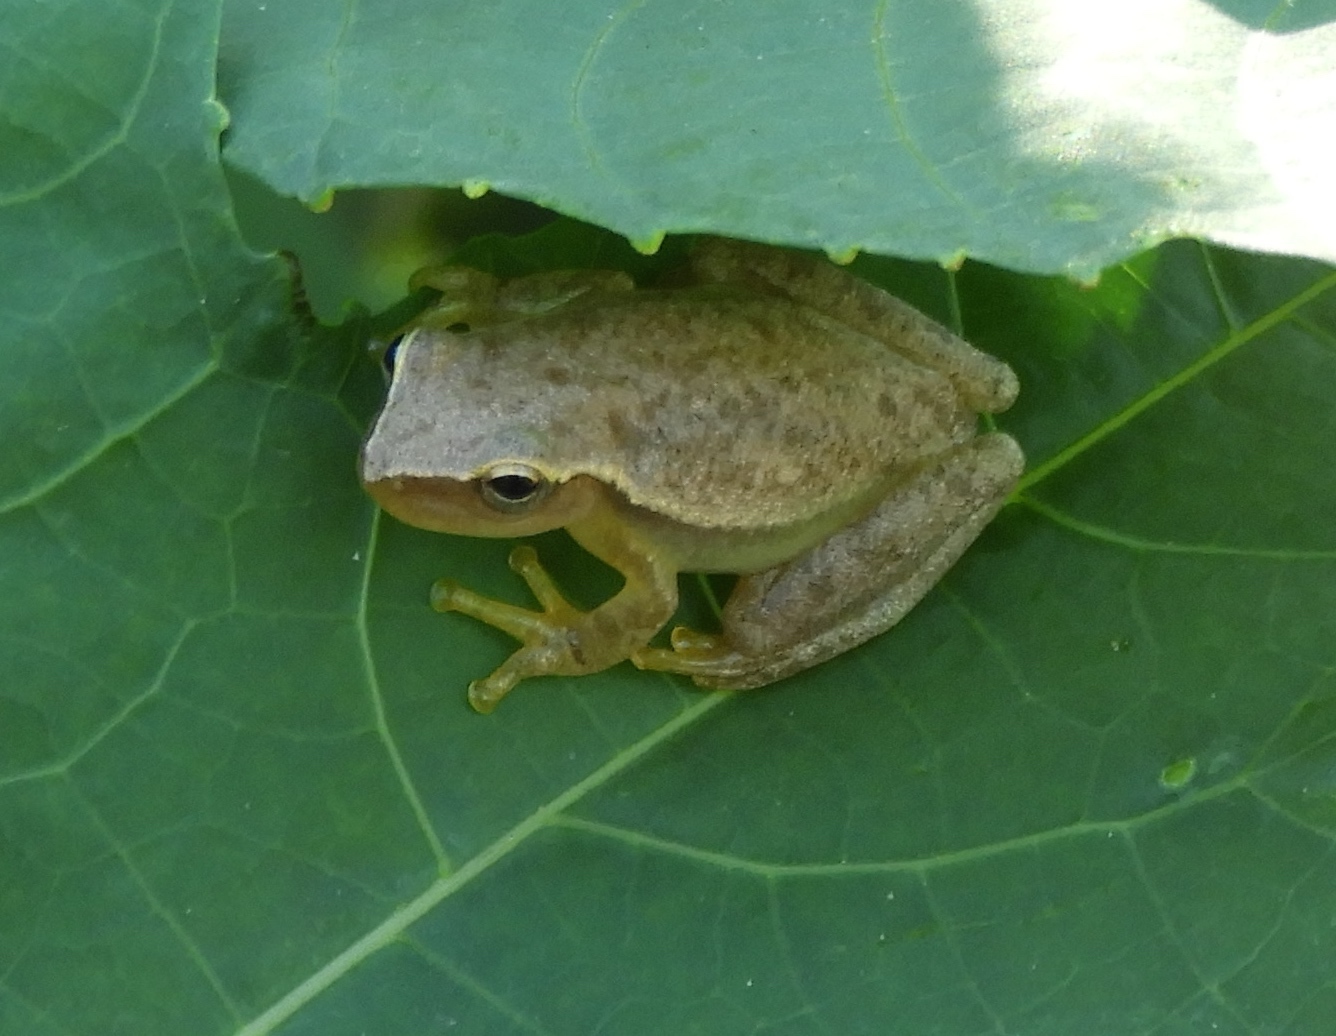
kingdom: Animalia
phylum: Chordata
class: Amphibia
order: Anura
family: Hylidae
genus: Tlalocohyla
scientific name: Tlalocohyla smithii
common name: Dwarf mexican treefrog
